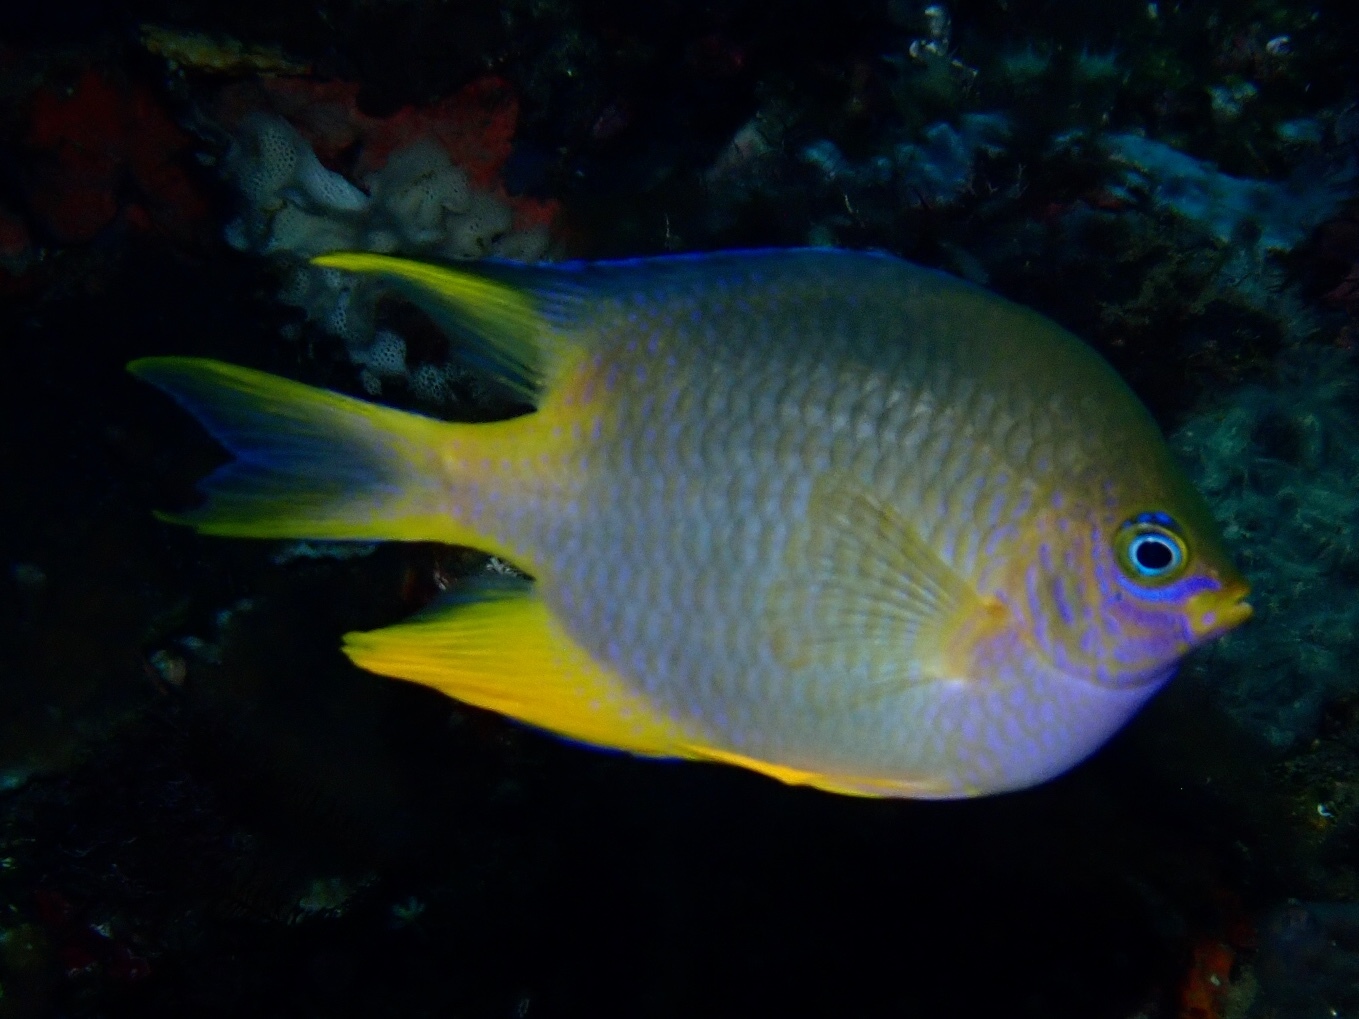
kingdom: Animalia
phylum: Chordata
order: Perciformes
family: Pomacentridae
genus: Amblyglyphidodon
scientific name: Amblyglyphidodon aureus
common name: Golden damsel
